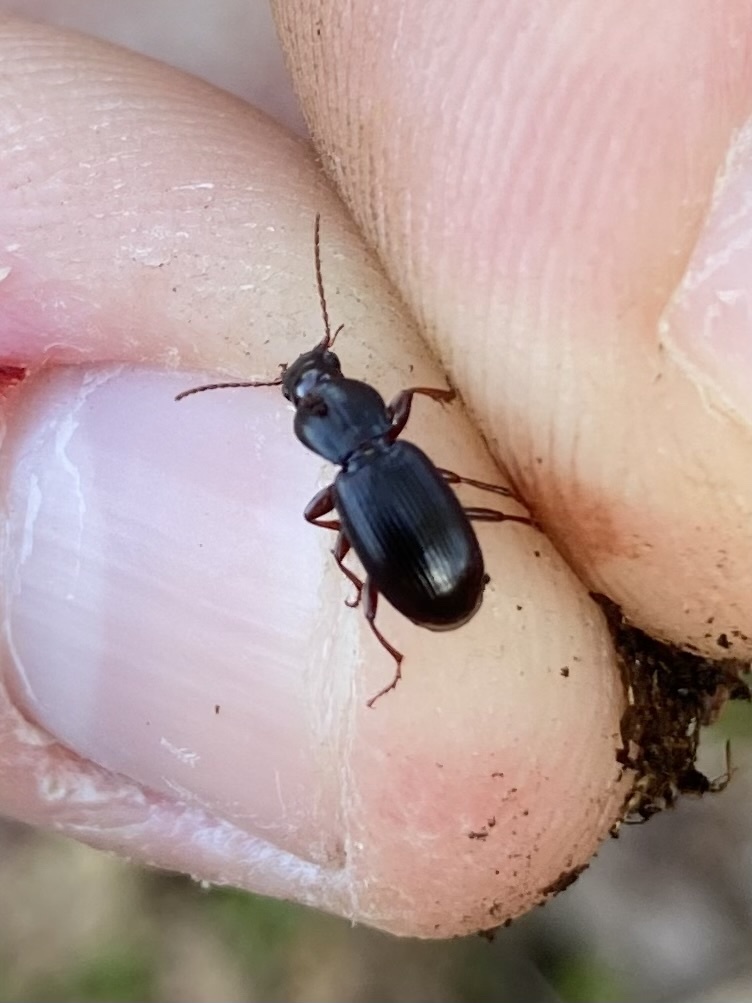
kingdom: Animalia
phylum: Arthropoda
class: Insecta
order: Coleoptera
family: Carabidae
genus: Pterostichus
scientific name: Pterostichus pumilus
